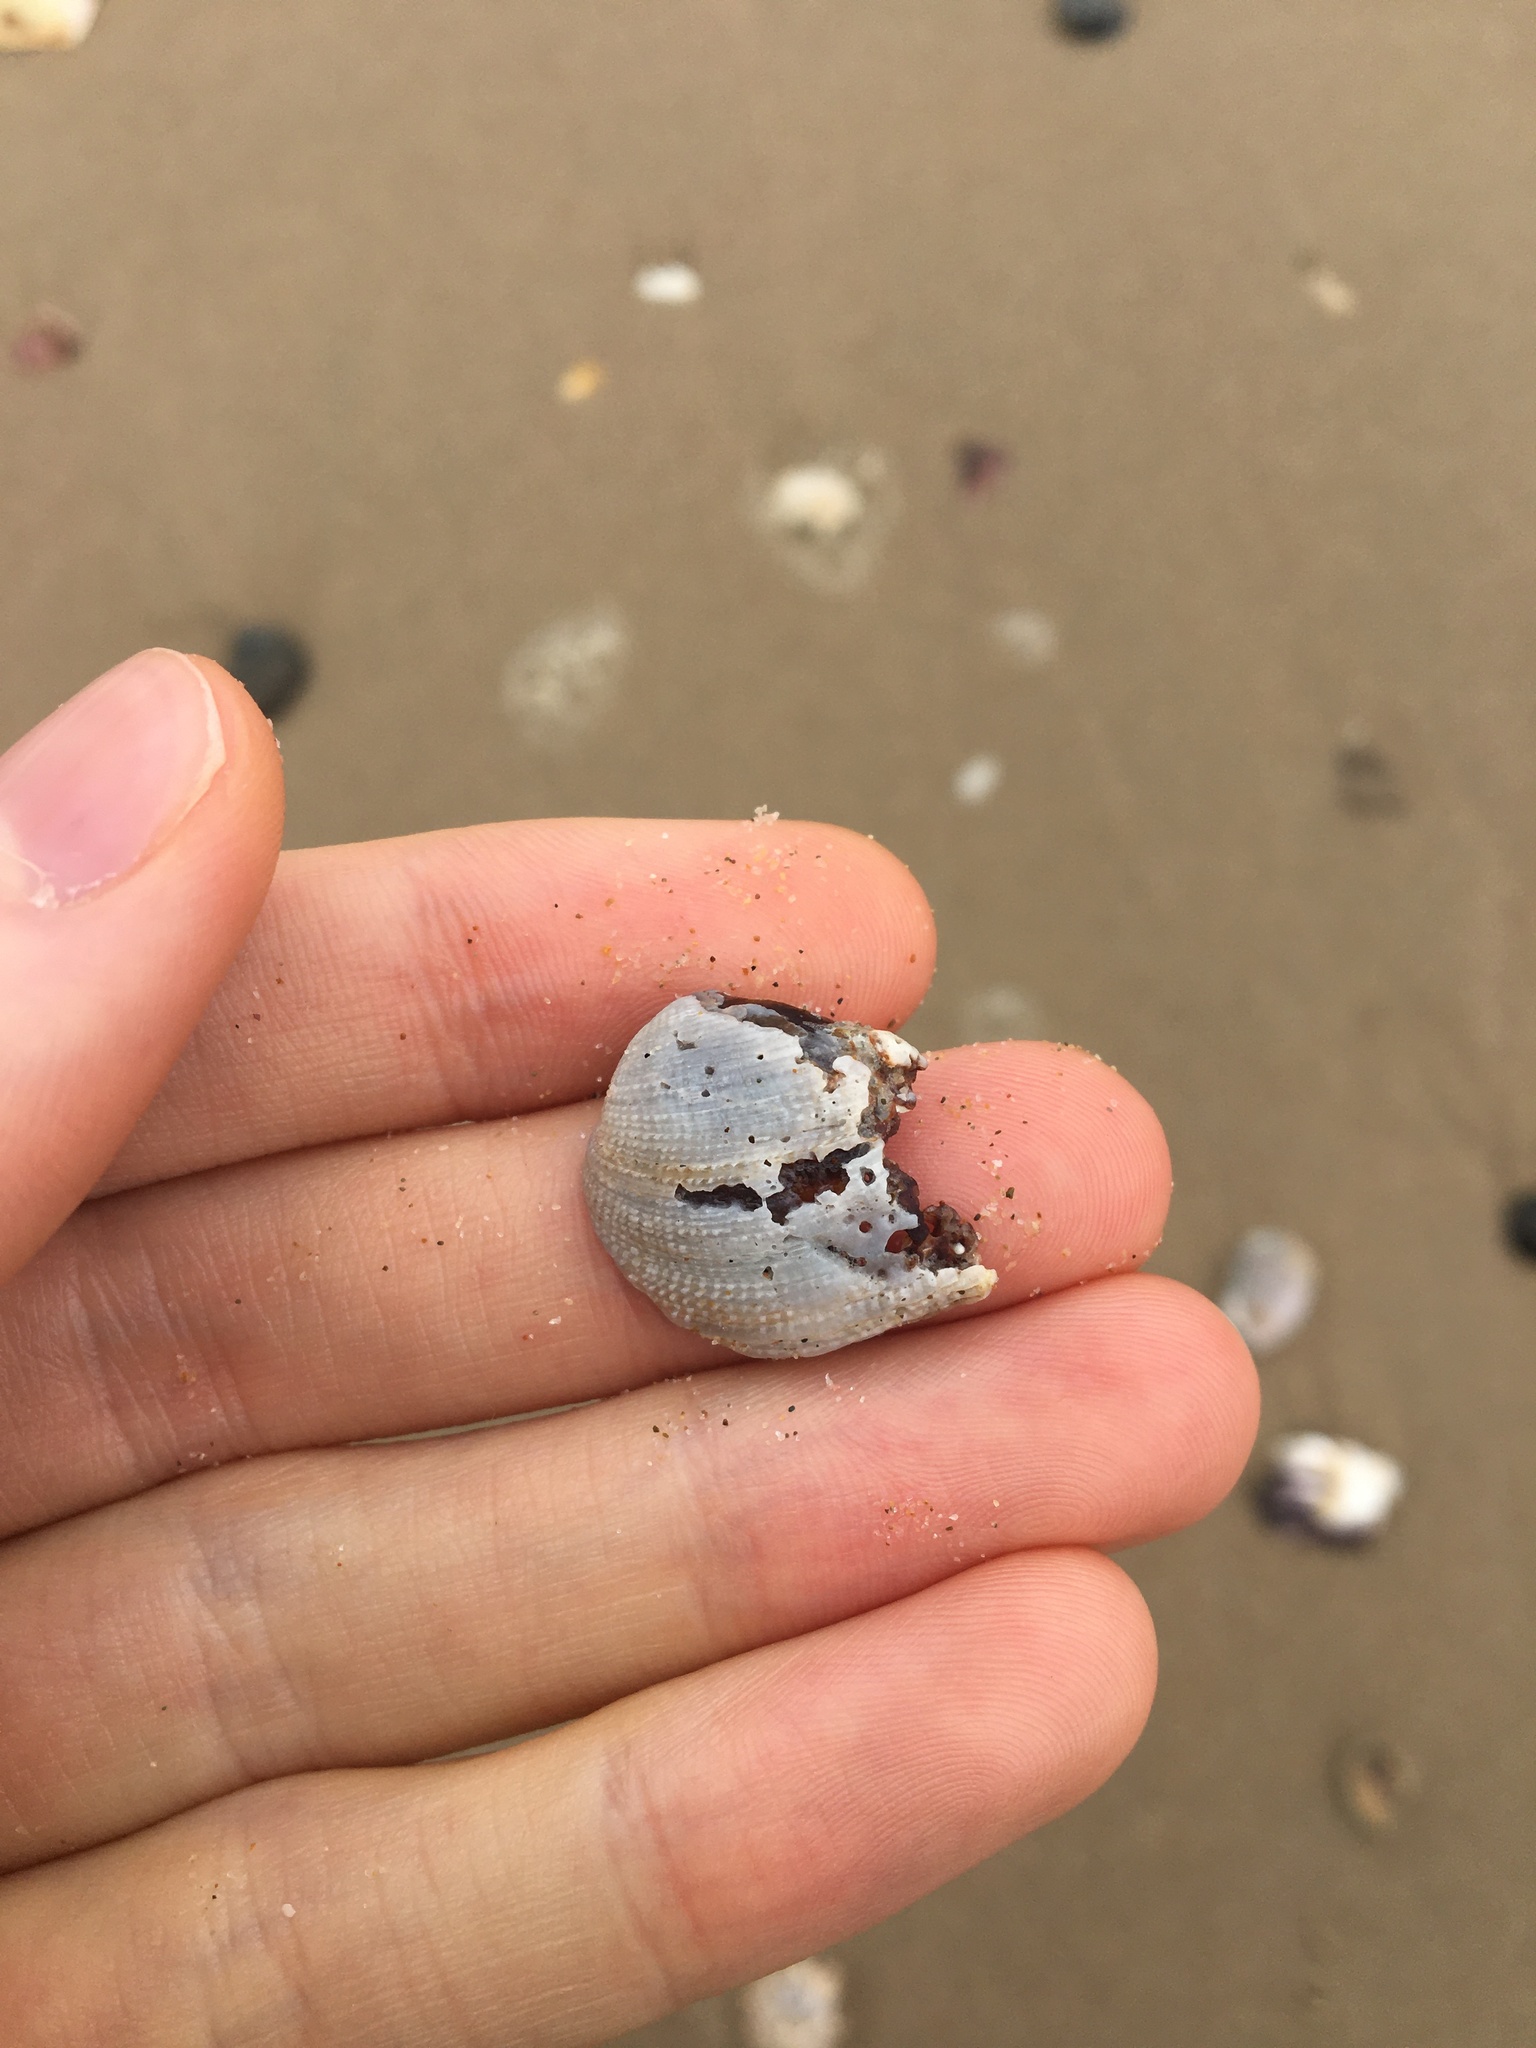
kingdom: Animalia
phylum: Mollusca
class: Bivalvia
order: Venerida
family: Veneridae
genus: Irus
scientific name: Irus cumingii
